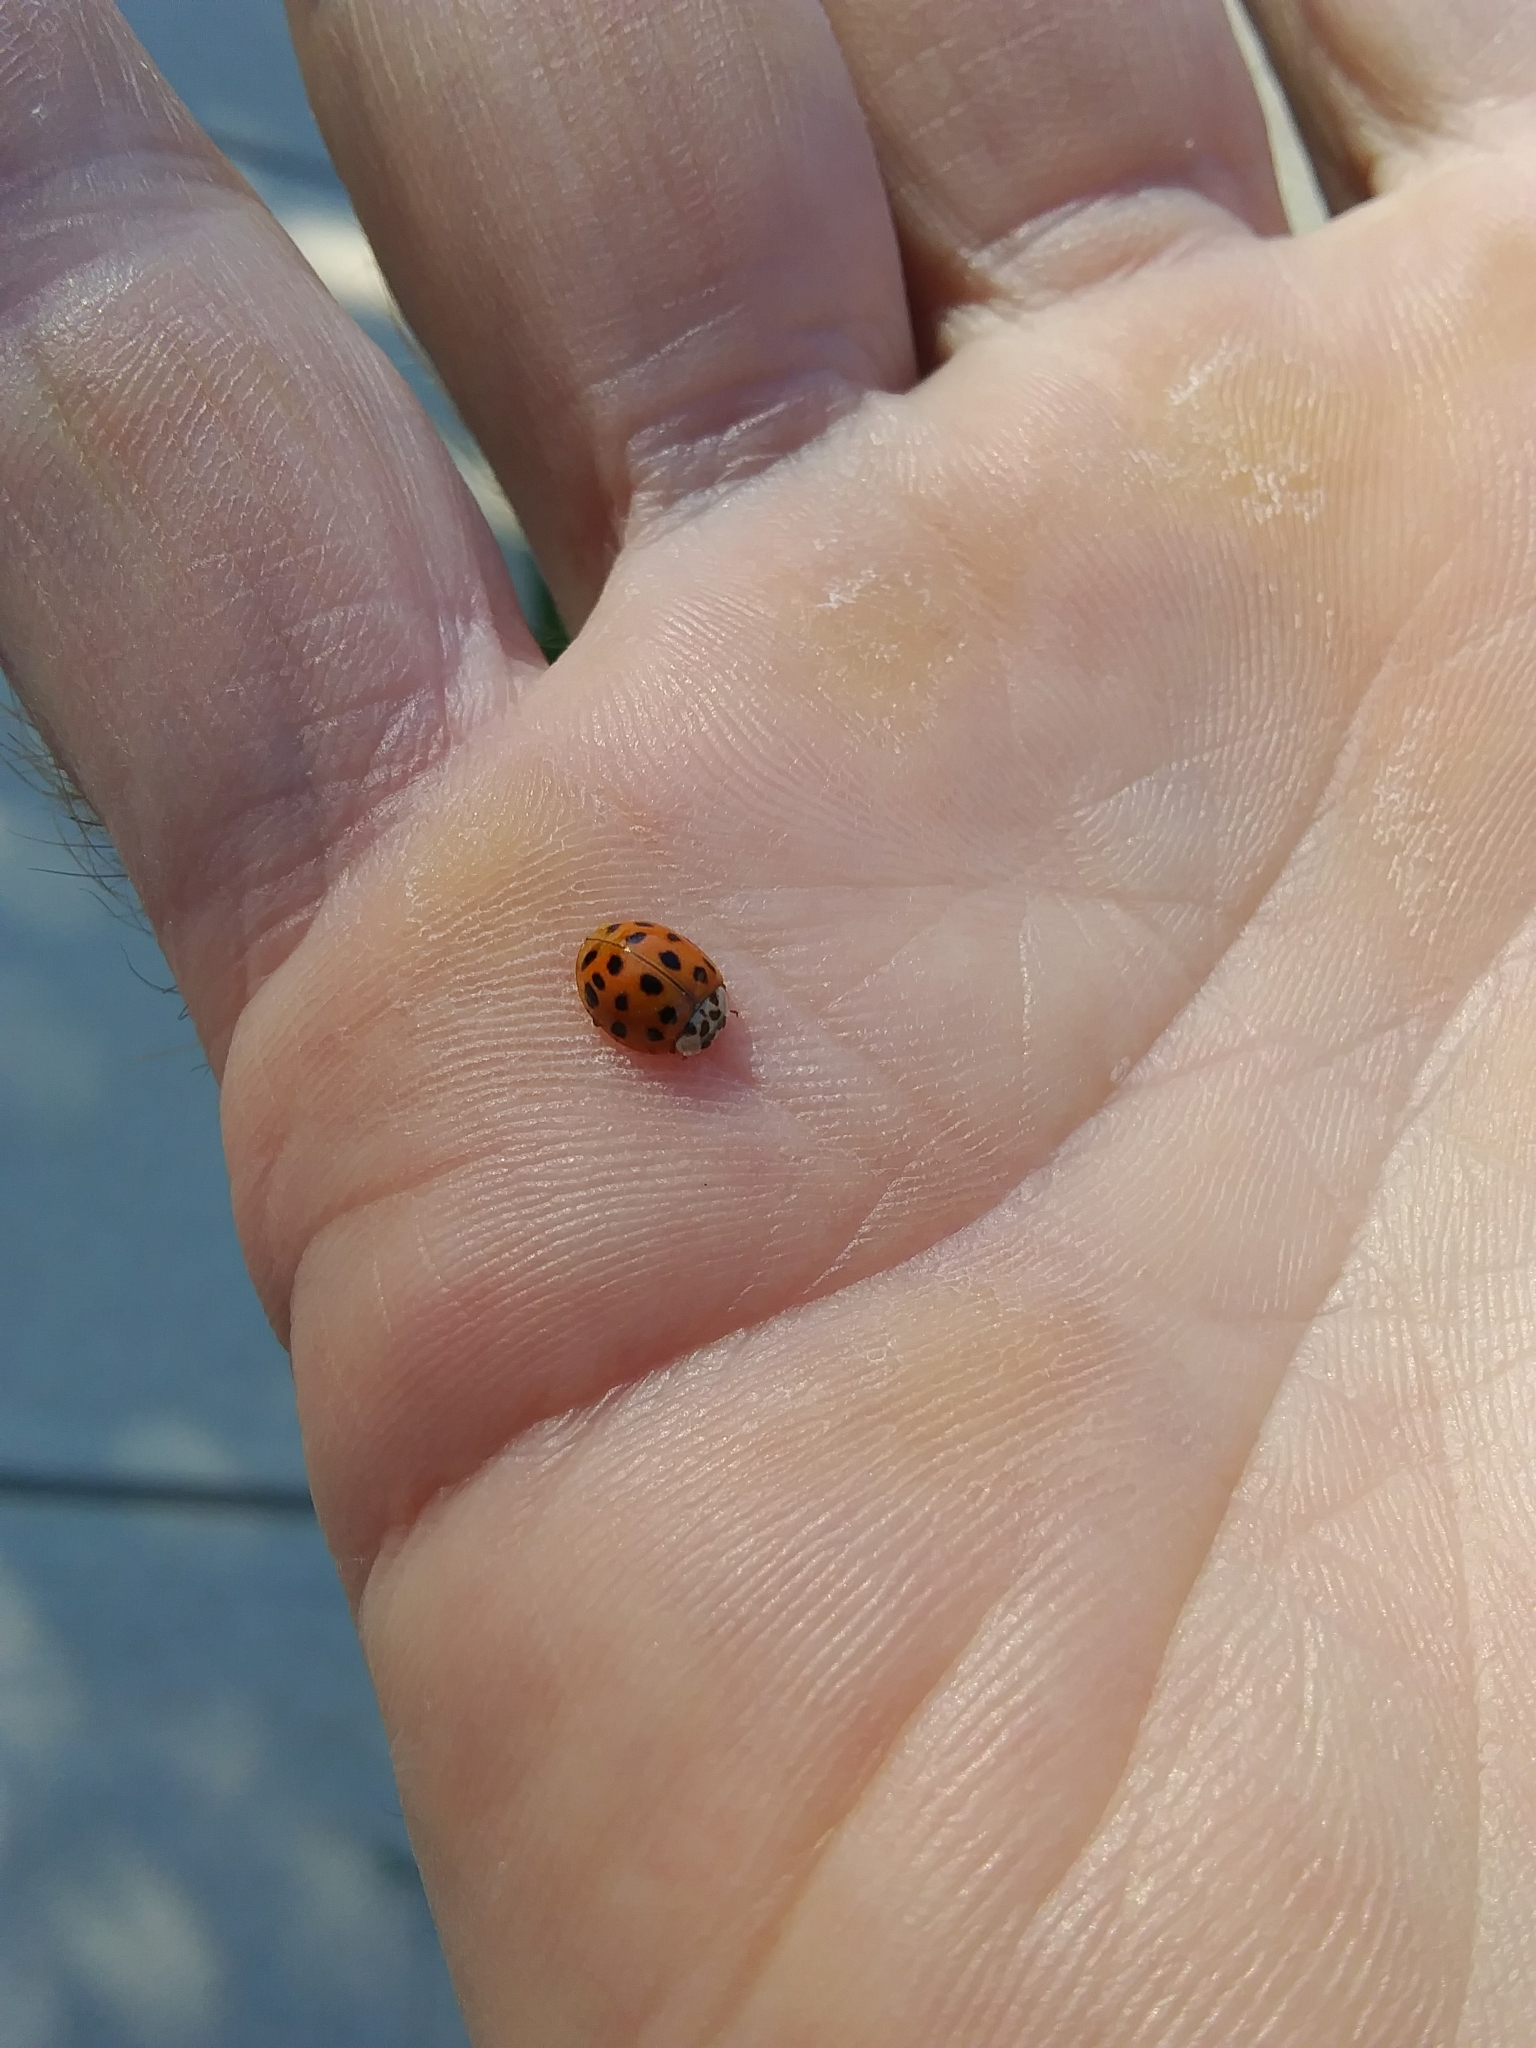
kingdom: Animalia
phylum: Arthropoda
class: Insecta
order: Coleoptera
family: Coccinellidae
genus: Harmonia
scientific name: Harmonia axyridis
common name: Harlequin ladybird
